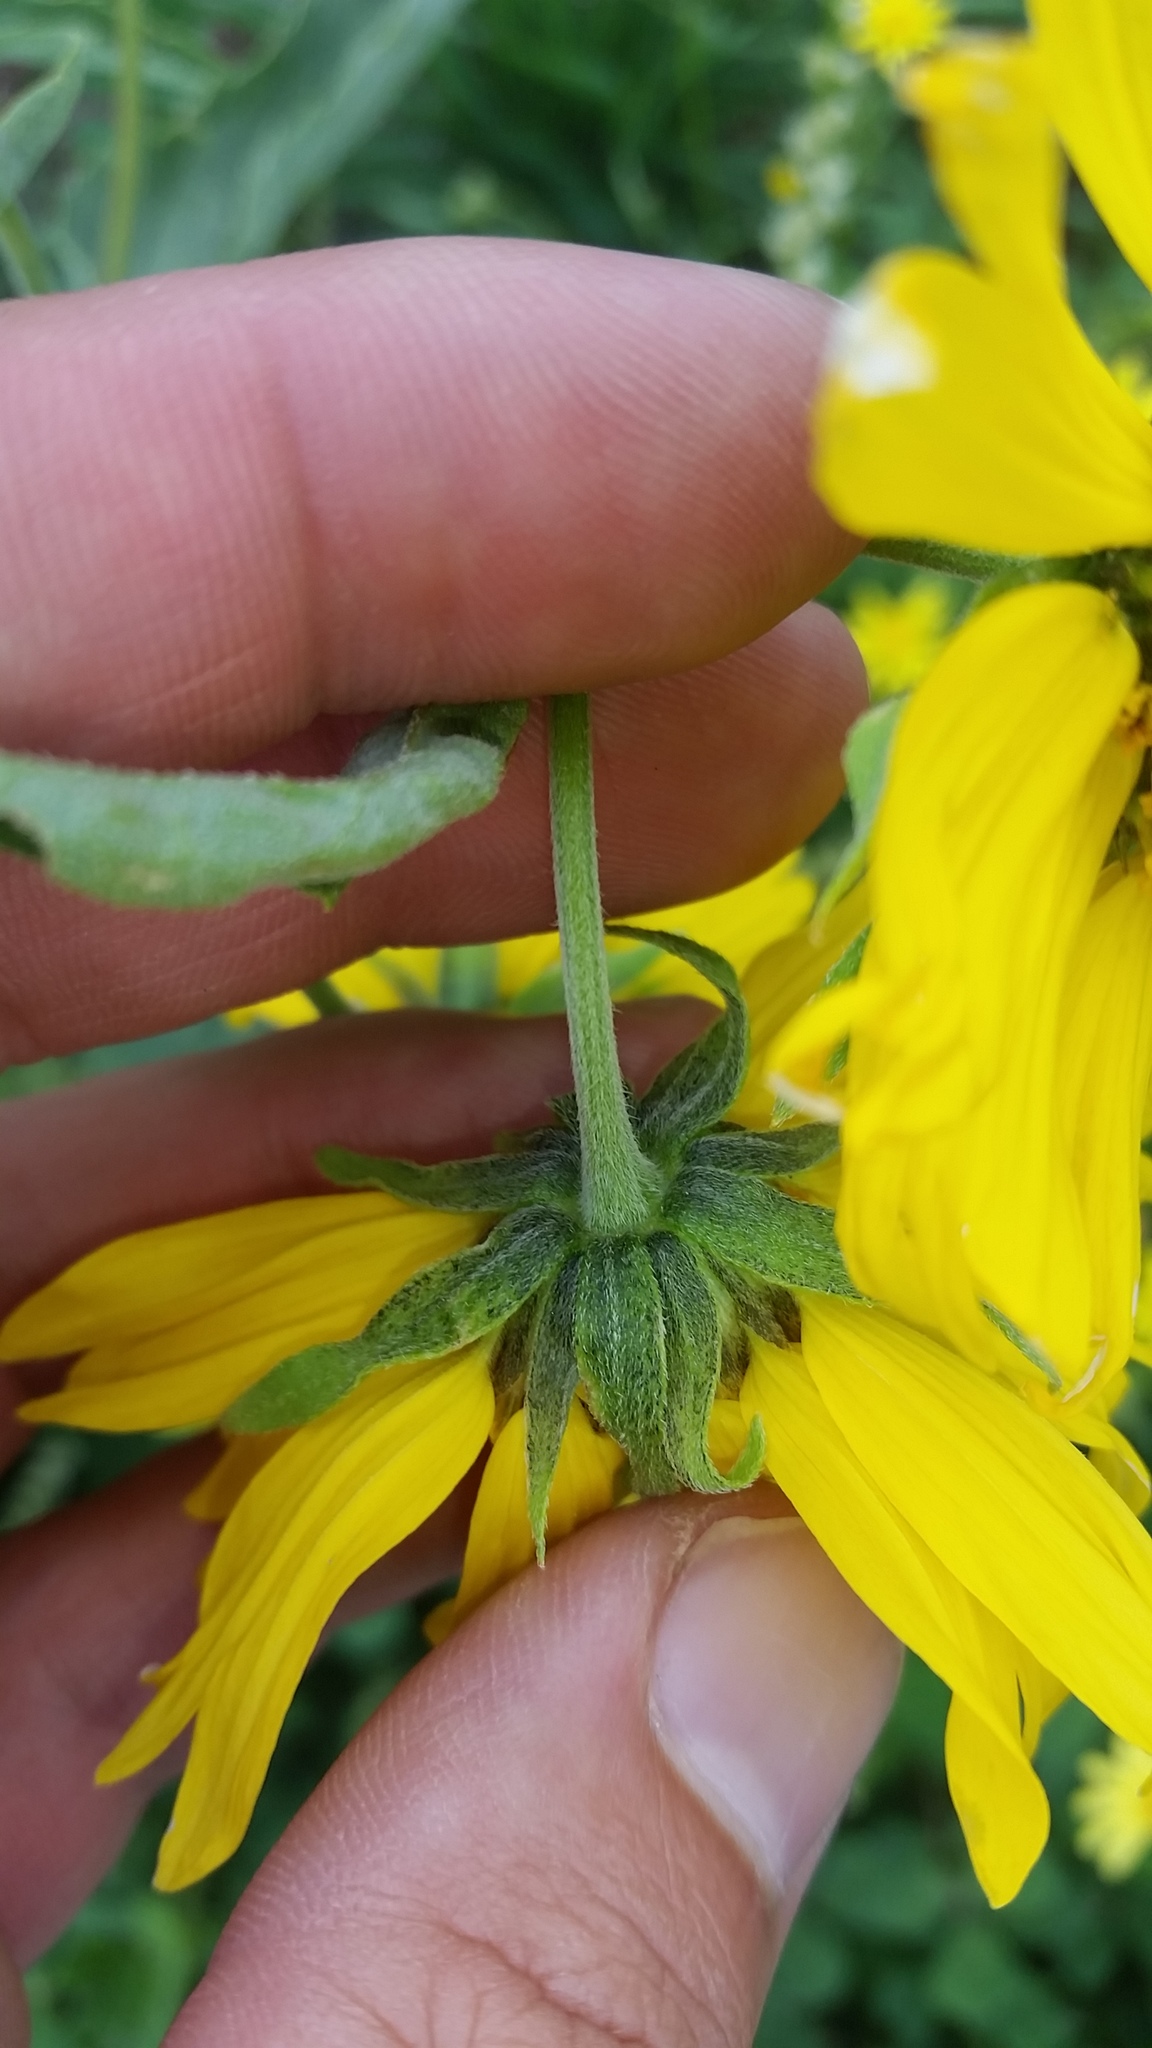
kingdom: Plantae
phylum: Tracheophyta
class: Magnoliopsida
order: Asterales
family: Asteraceae
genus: Verbesina
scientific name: Verbesina encelioides
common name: Golden crownbeard
